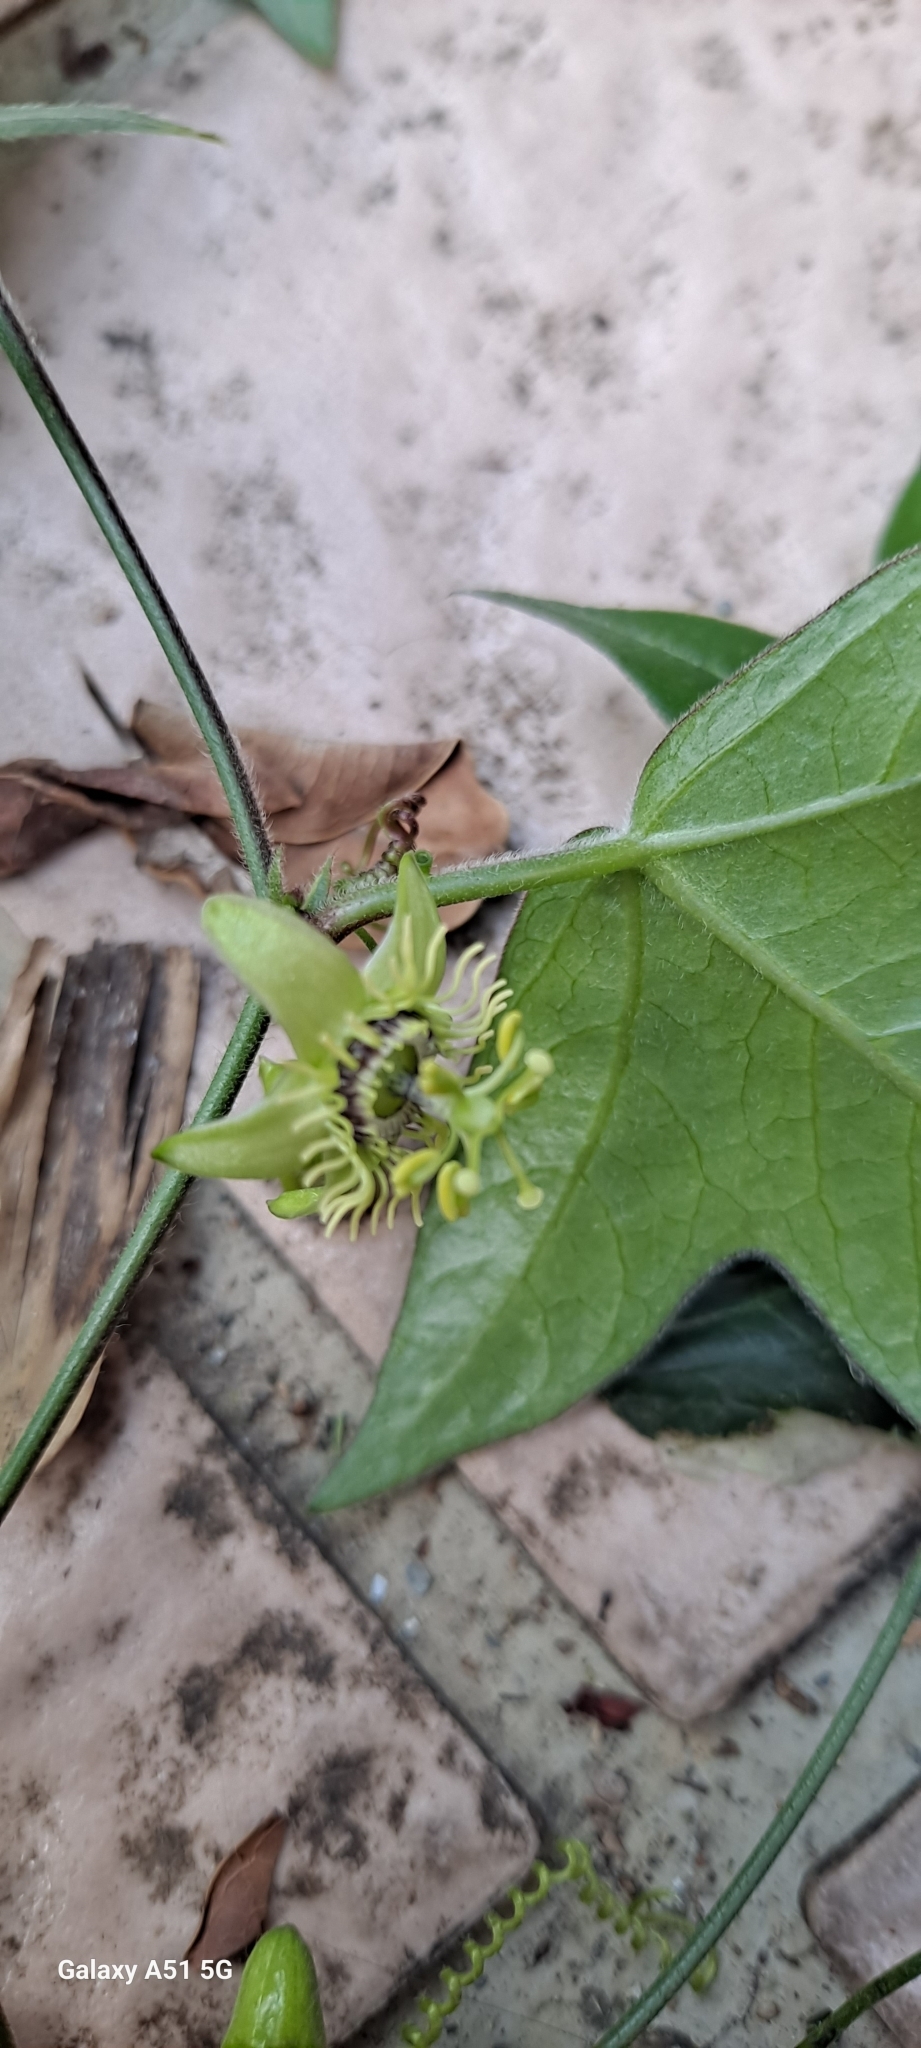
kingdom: Plantae
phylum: Tracheophyta
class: Magnoliopsida
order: Malpighiales
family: Passifloraceae
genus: Passiflora
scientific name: Passiflora suberosa
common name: Wild passionfruit
